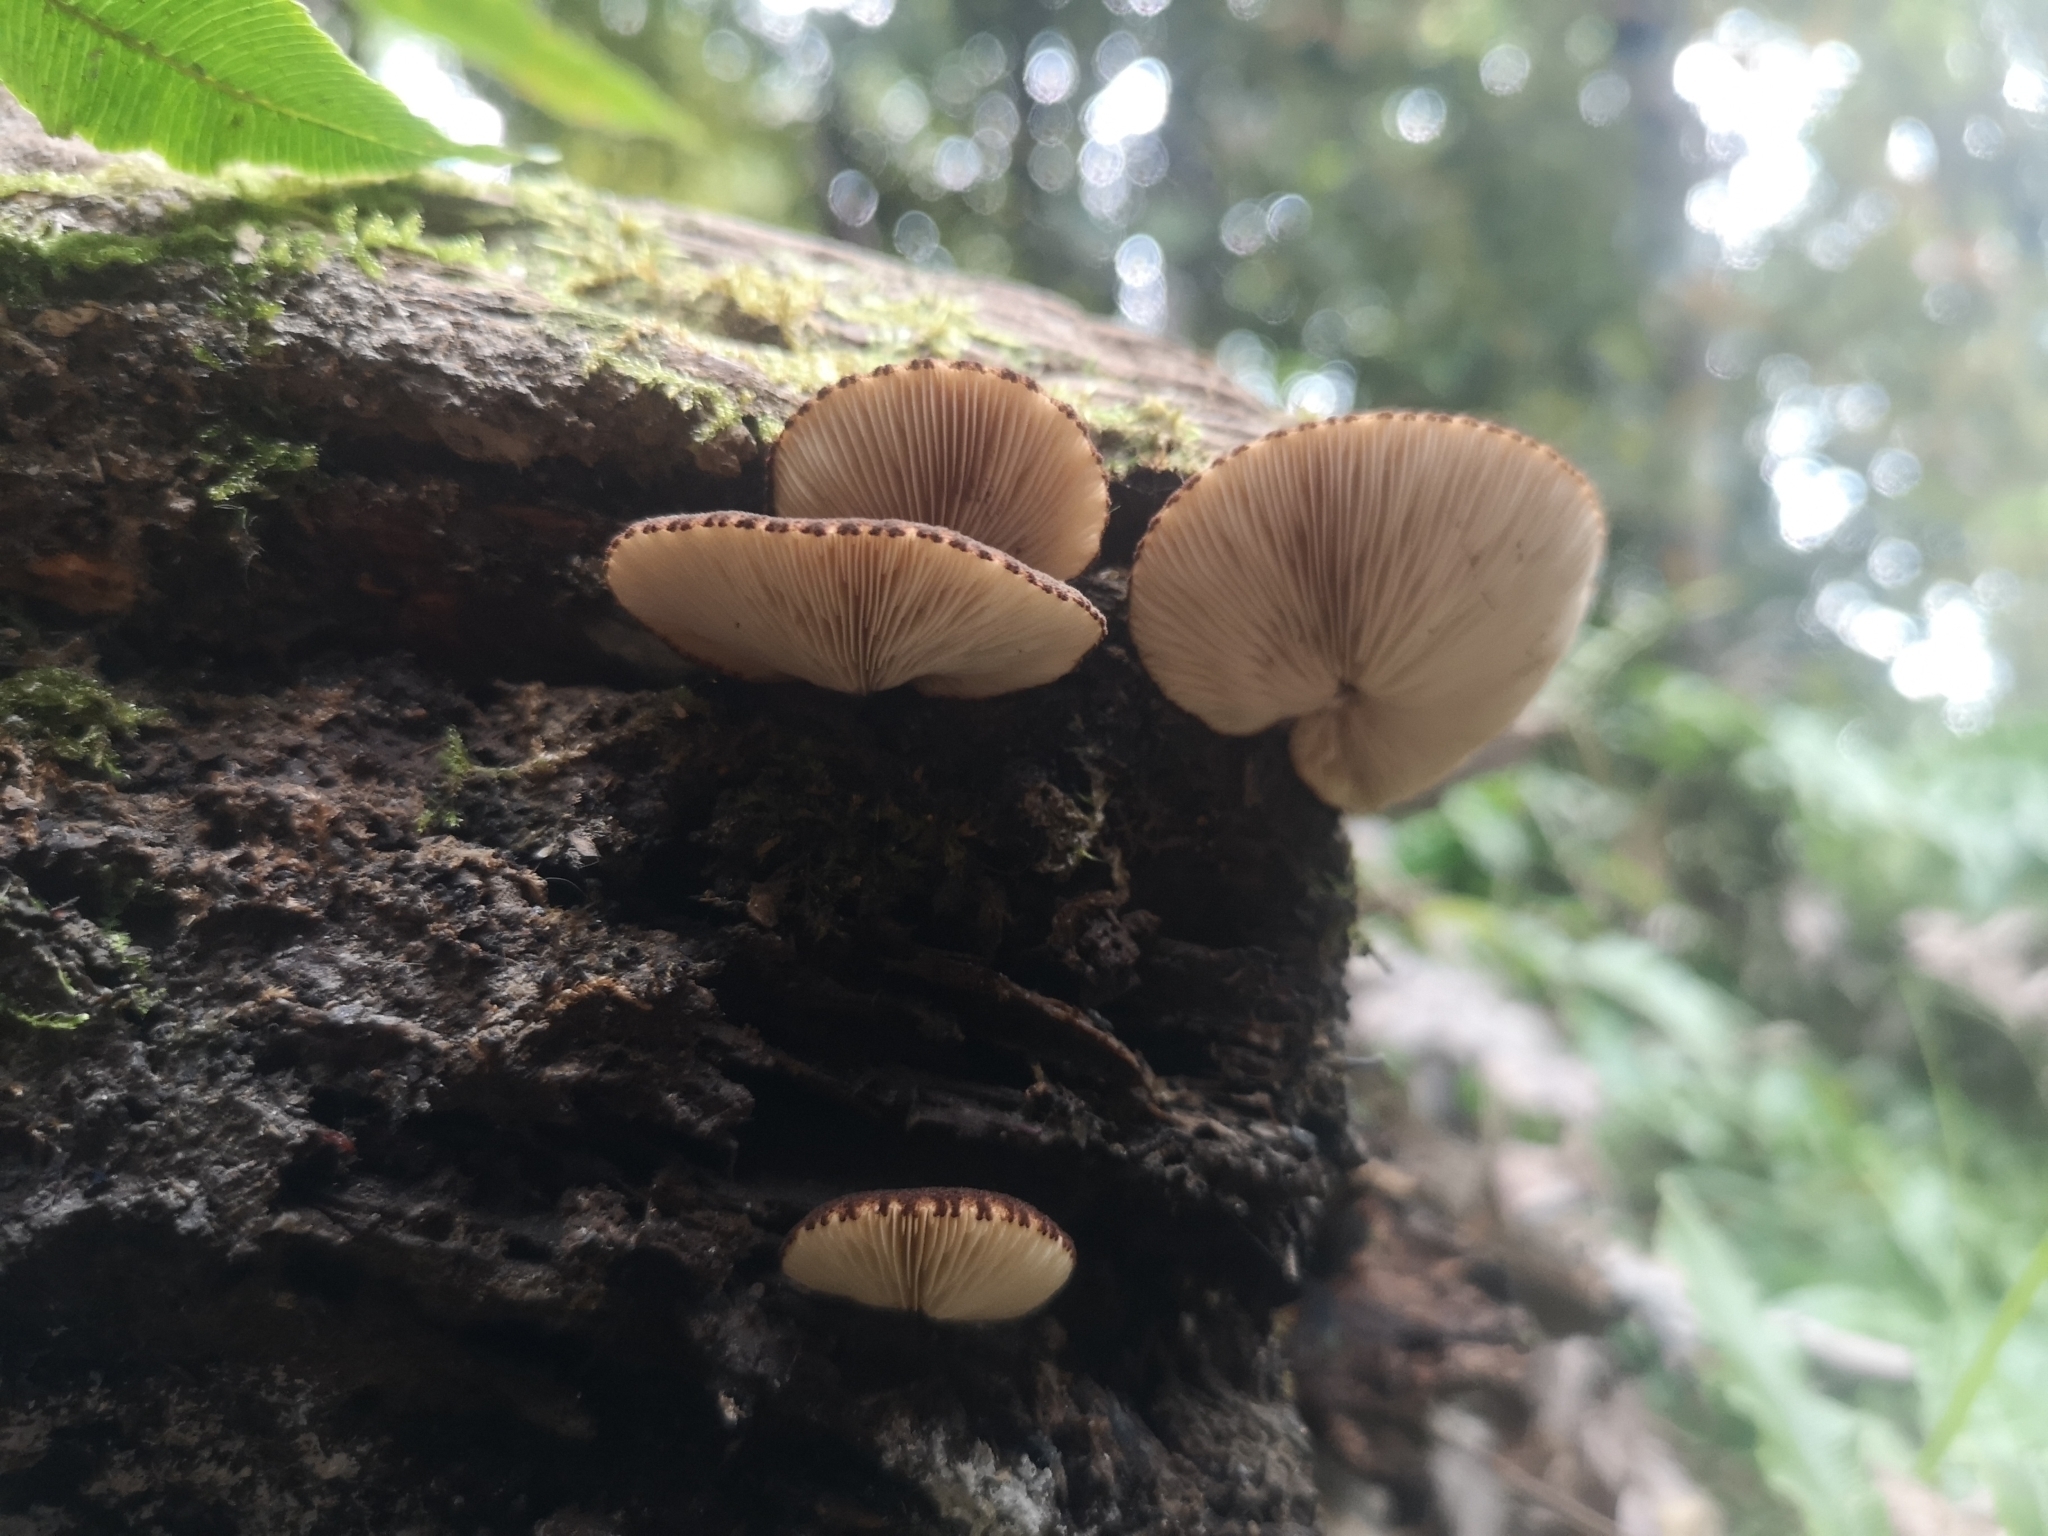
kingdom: Fungi
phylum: Basidiomycota
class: Agaricomycetes
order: Agaricales
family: Crepidotaceae
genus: Crepidotus
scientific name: Crepidotus fuscovelutinus
